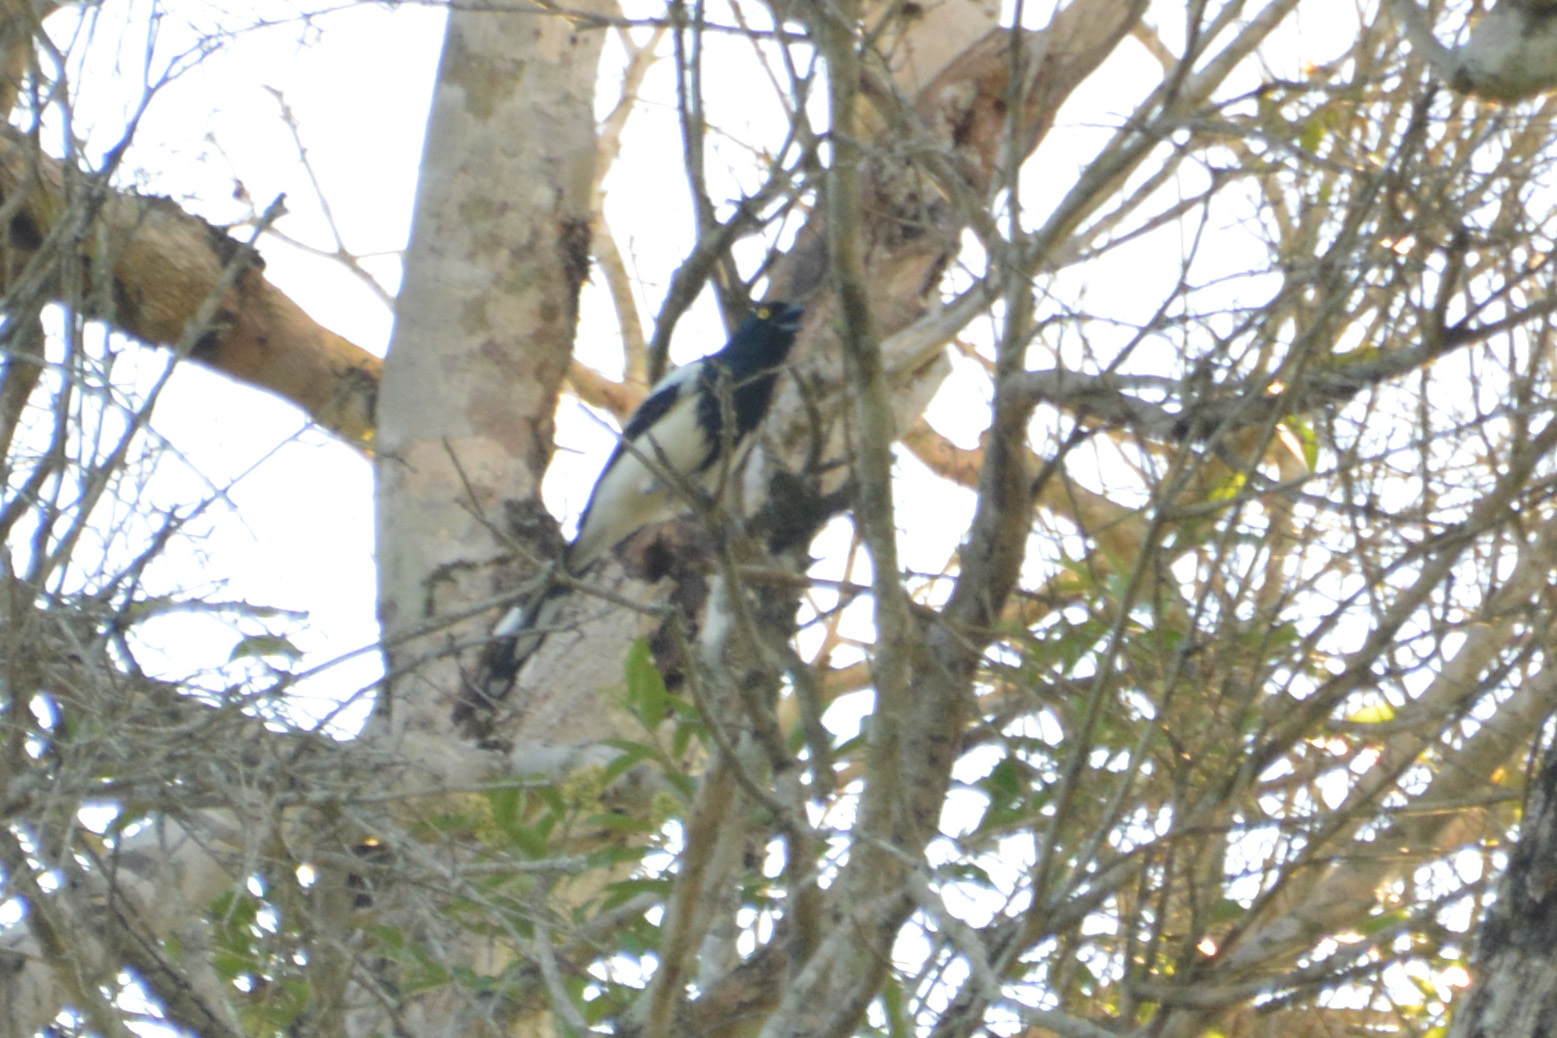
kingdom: Animalia
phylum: Chordata
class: Aves
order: Passeriformes
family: Thraupidae
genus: Cissopis
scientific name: Cissopis leverianus
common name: Magpie tanager
